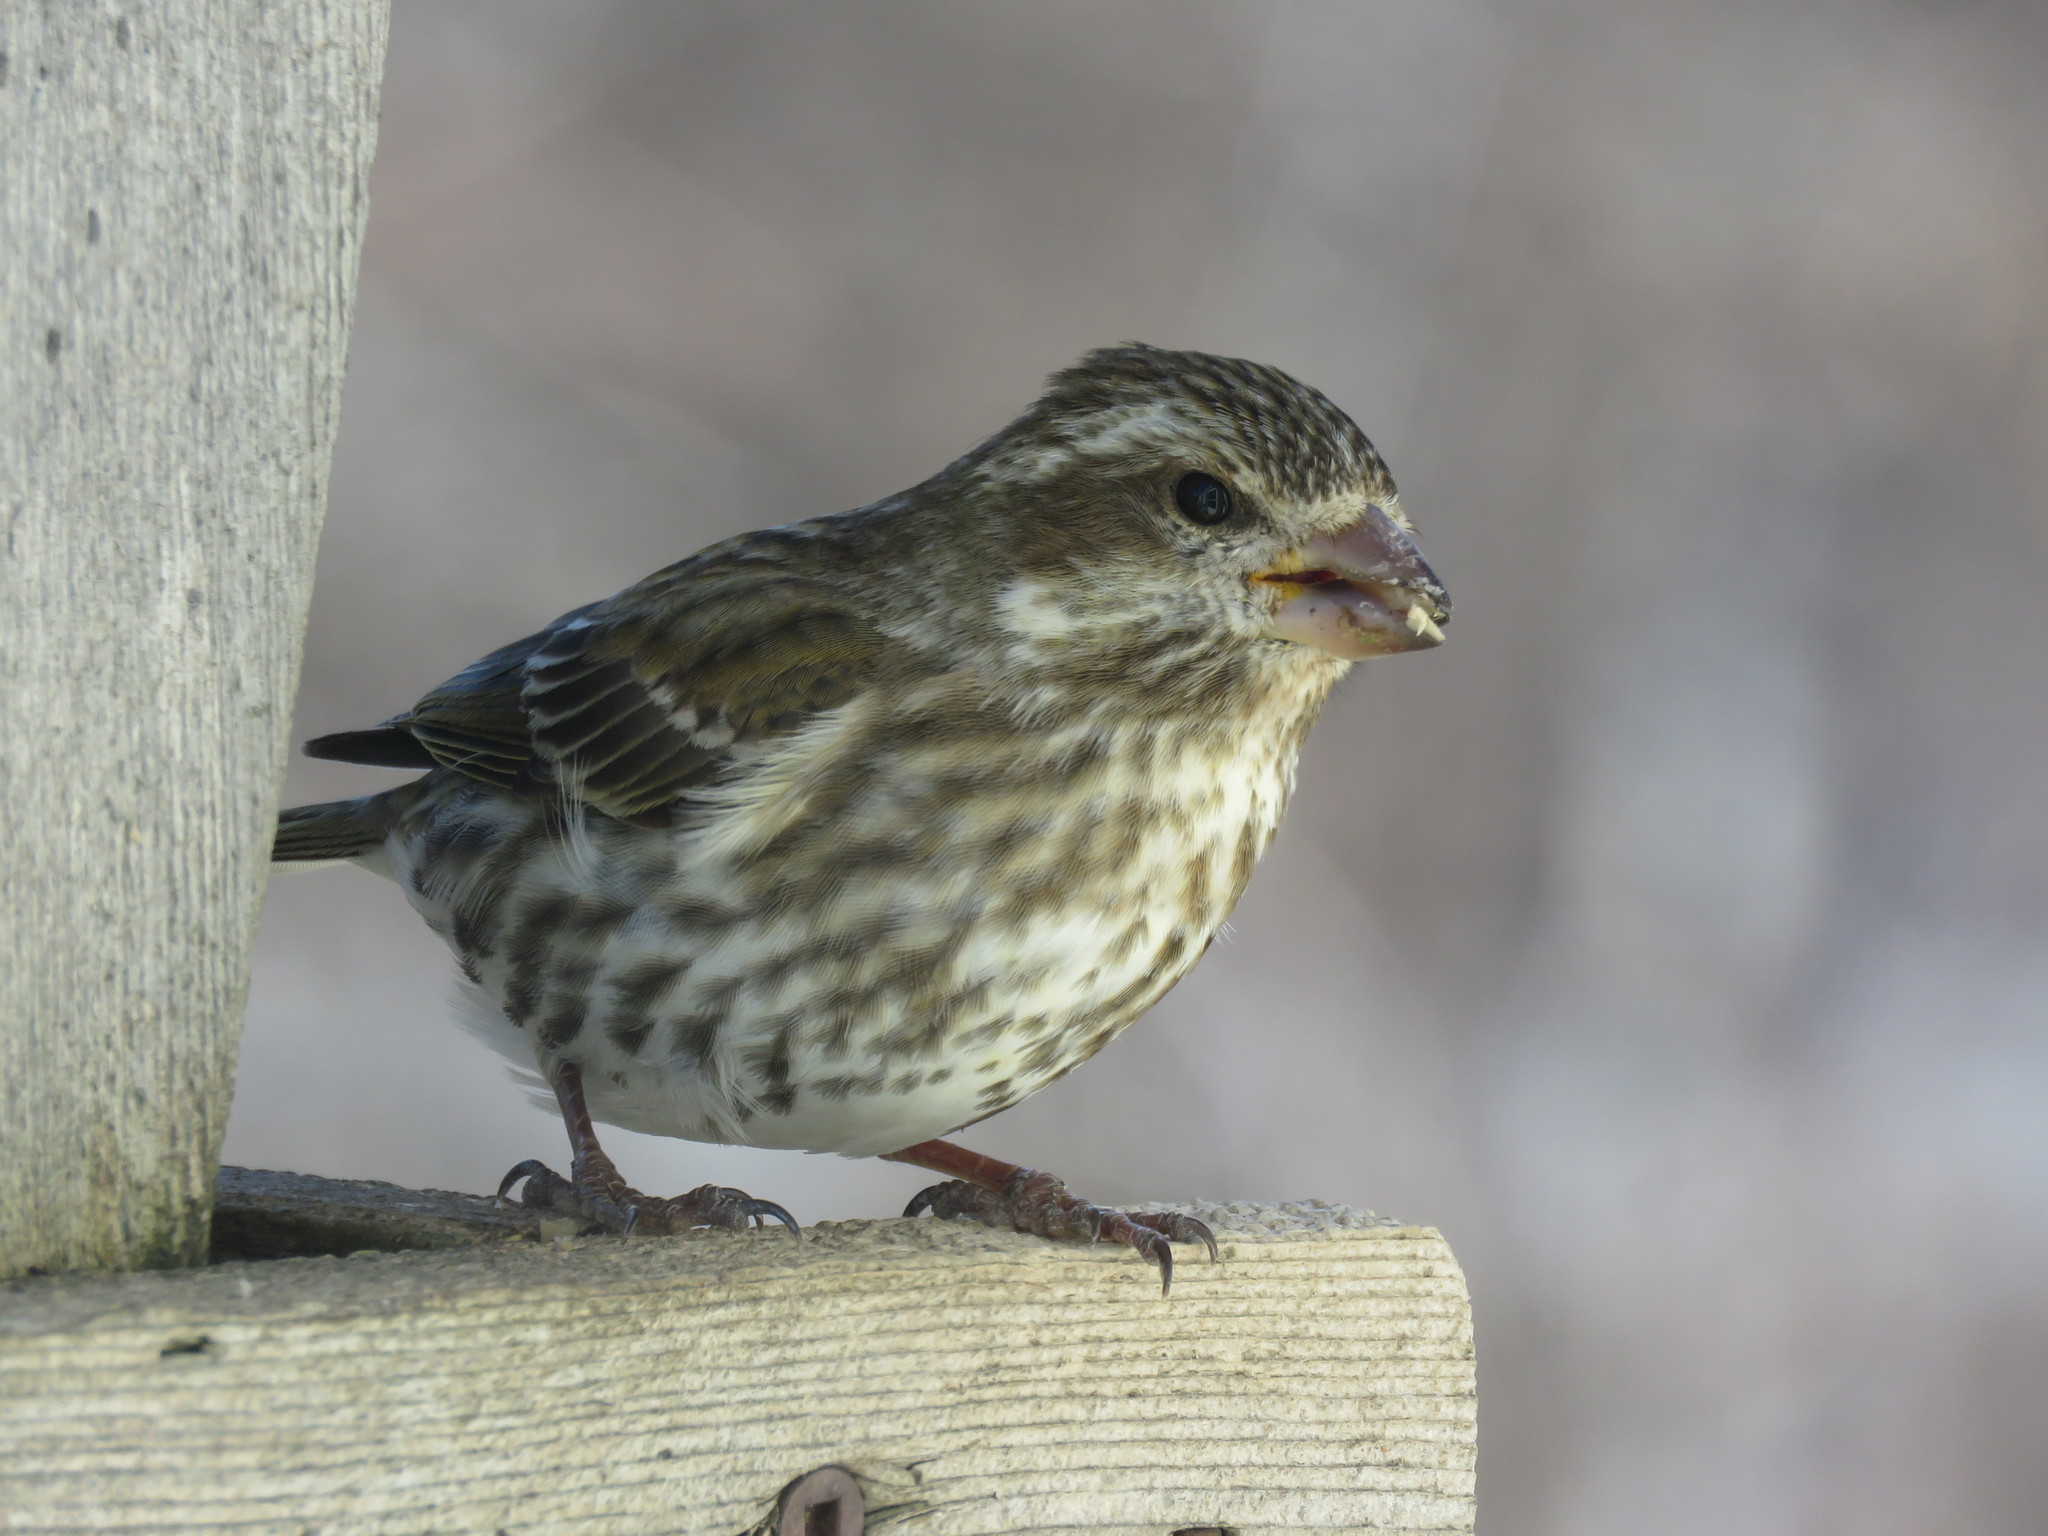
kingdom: Animalia
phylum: Chordata
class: Aves
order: Passeriformes
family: Fringillidae
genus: Haemorhous
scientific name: Haemorhous purpureus
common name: Purple finch
